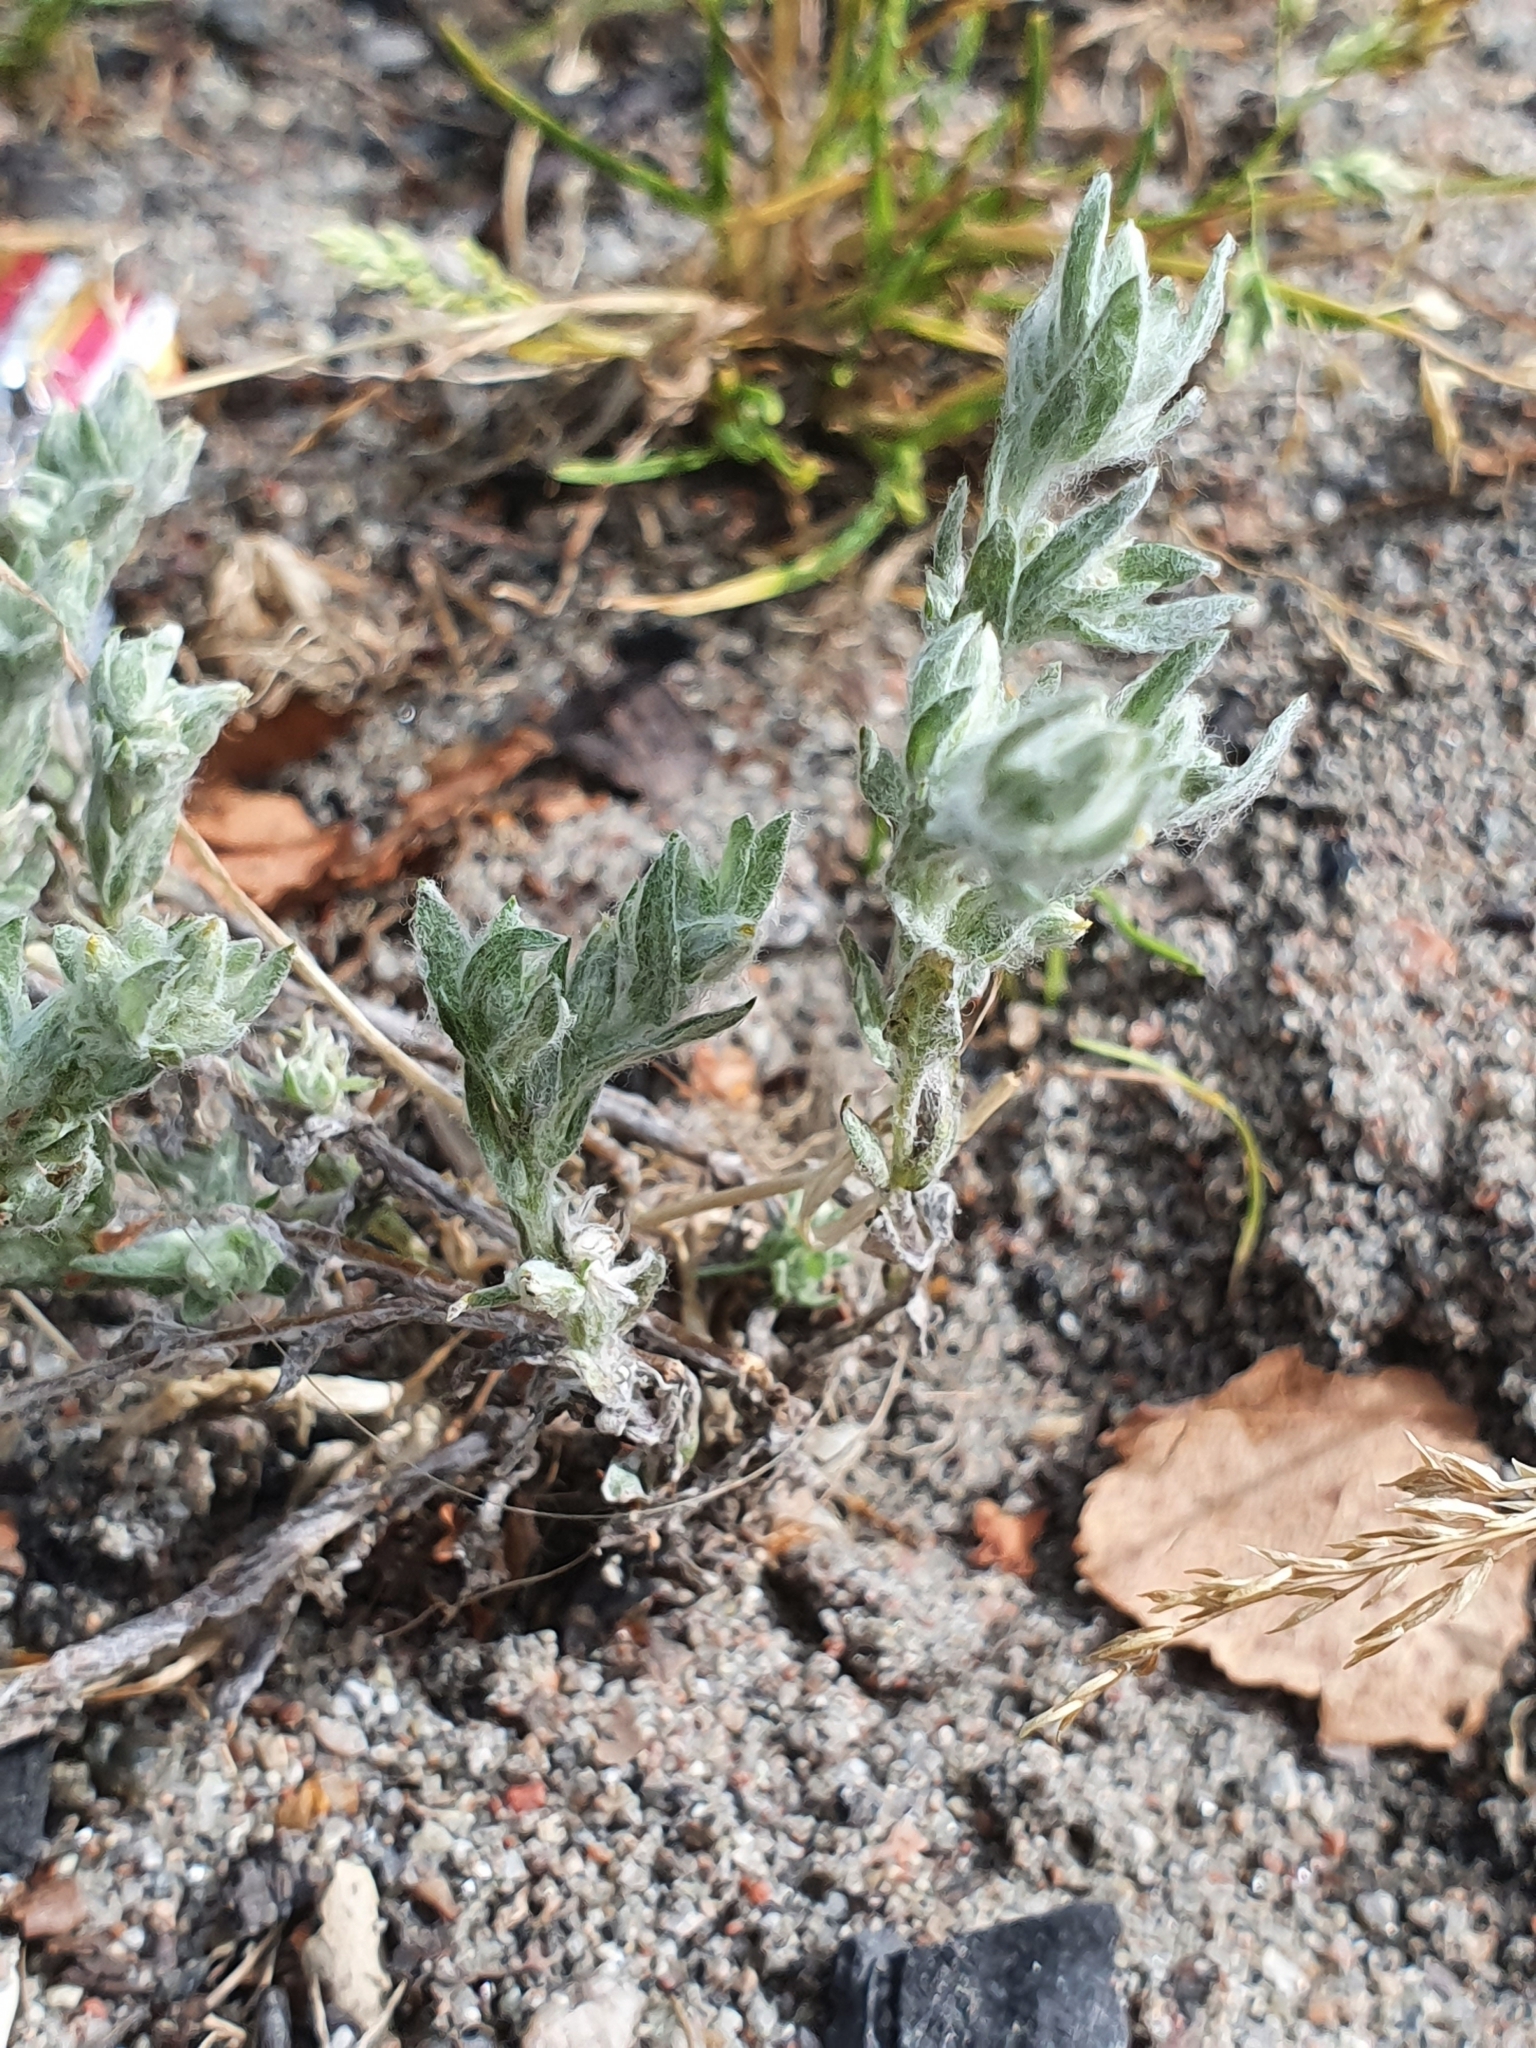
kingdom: Plantae
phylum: Tracheophyta
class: Magnoliopsida
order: Asterales
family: Asteraceae
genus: Filago
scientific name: Filago arvensis
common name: Field cudweed
